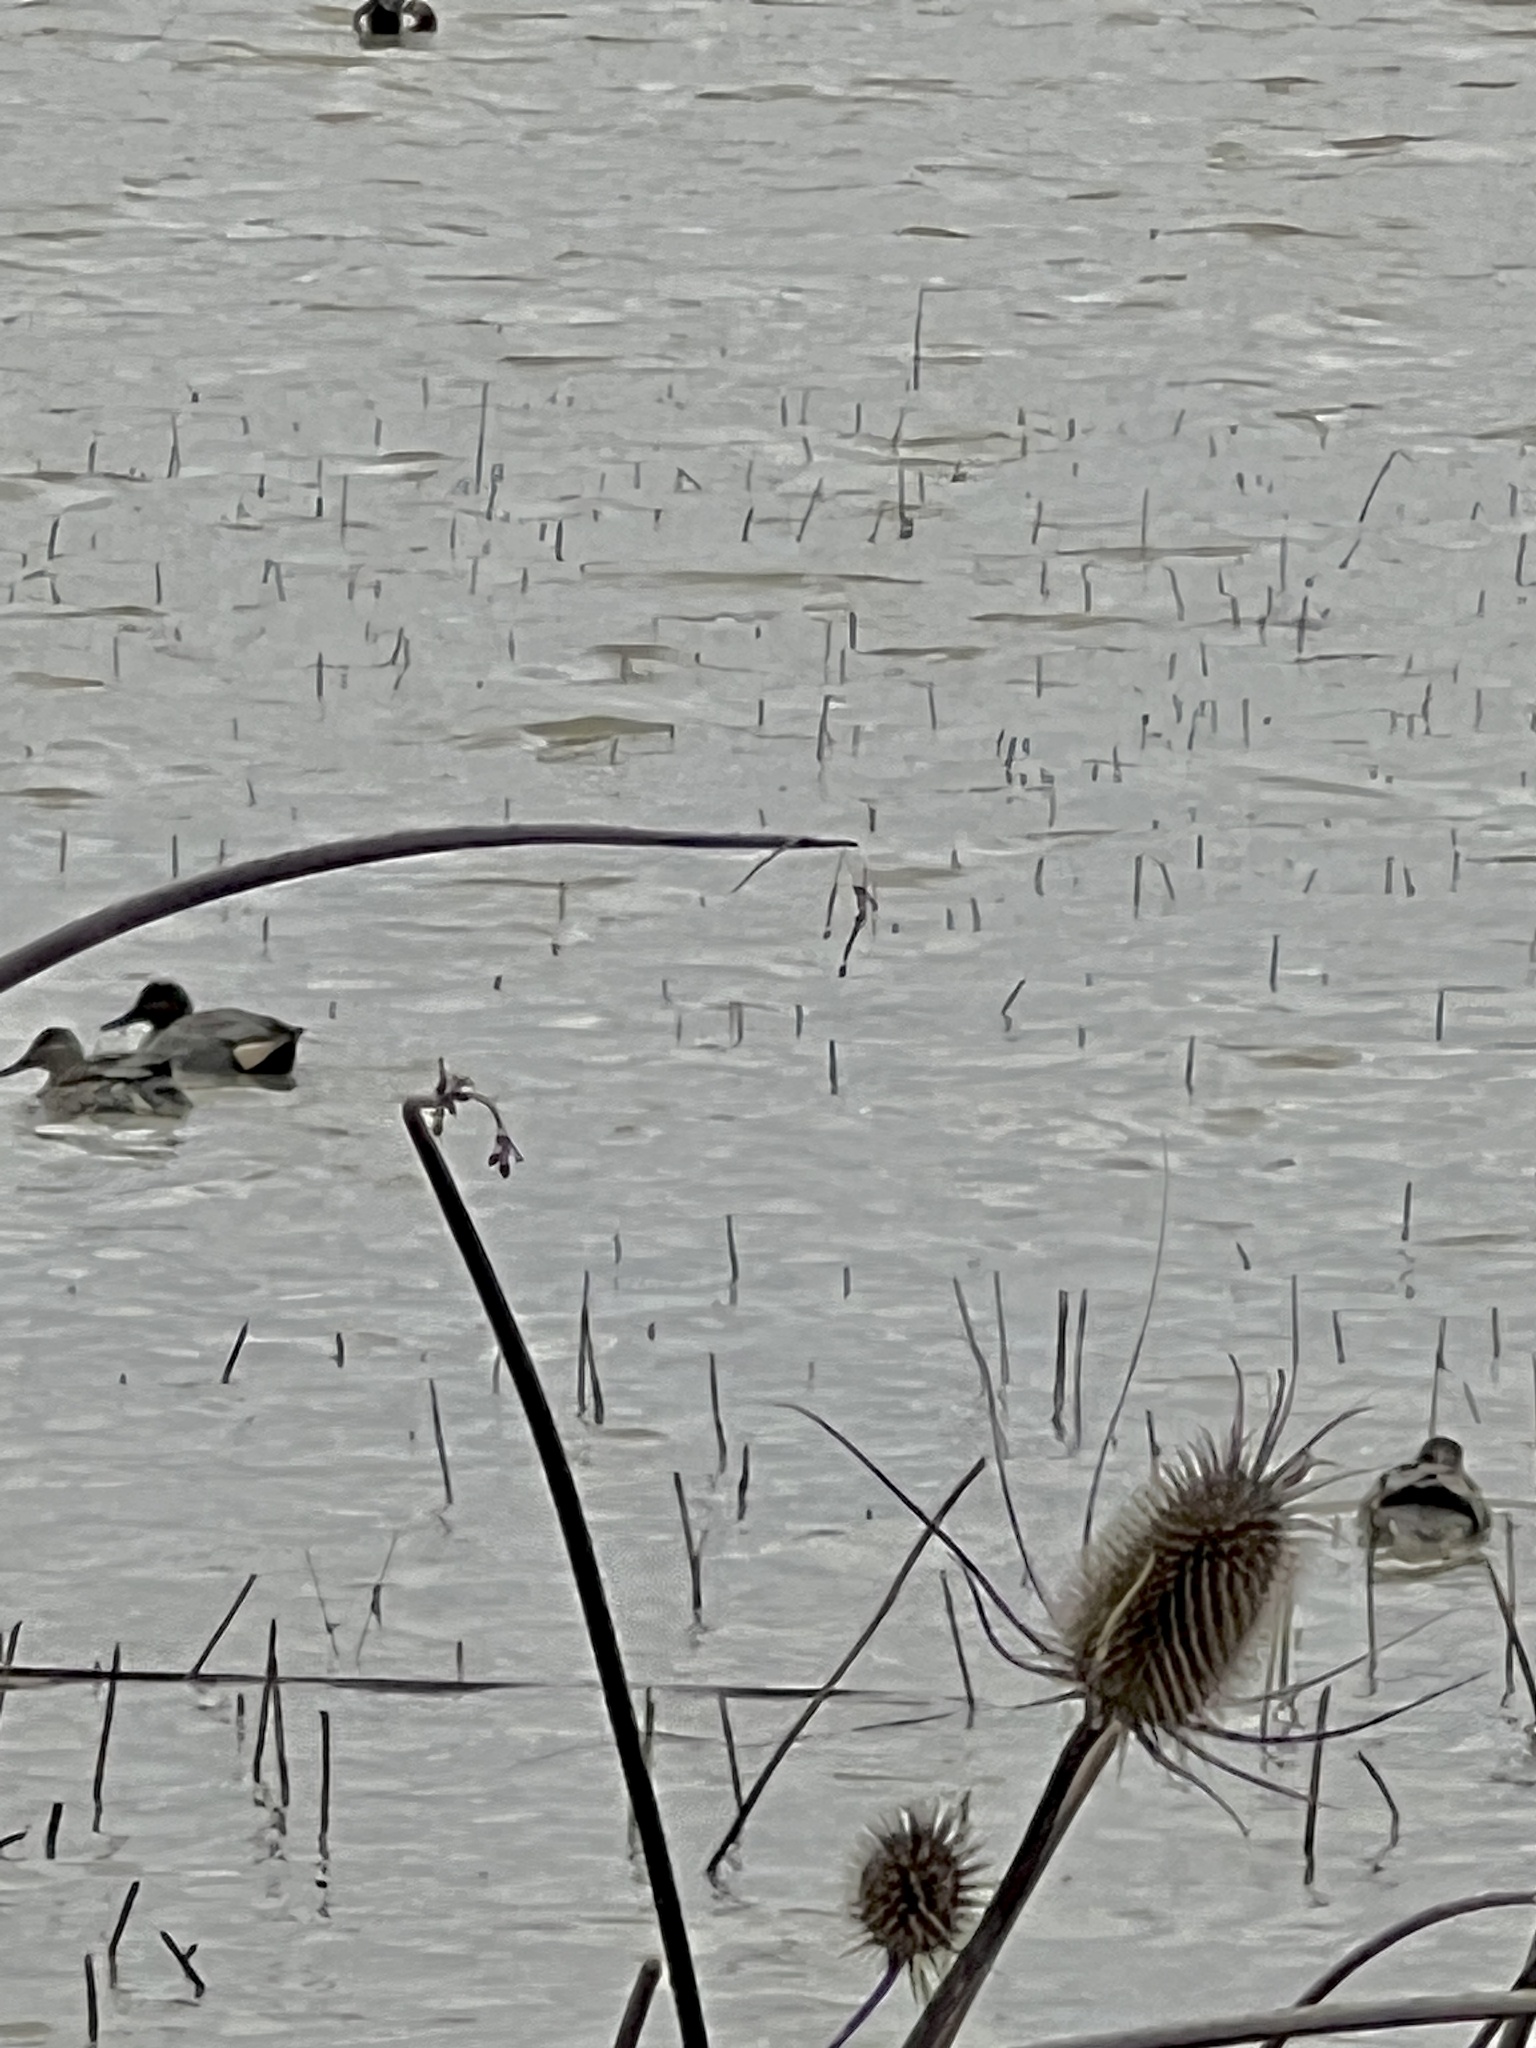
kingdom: Animalia
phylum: Chordata
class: Aves
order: Anseriformes
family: Anatidae
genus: Anas
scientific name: Anas carolinensis
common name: Green-winged teal
